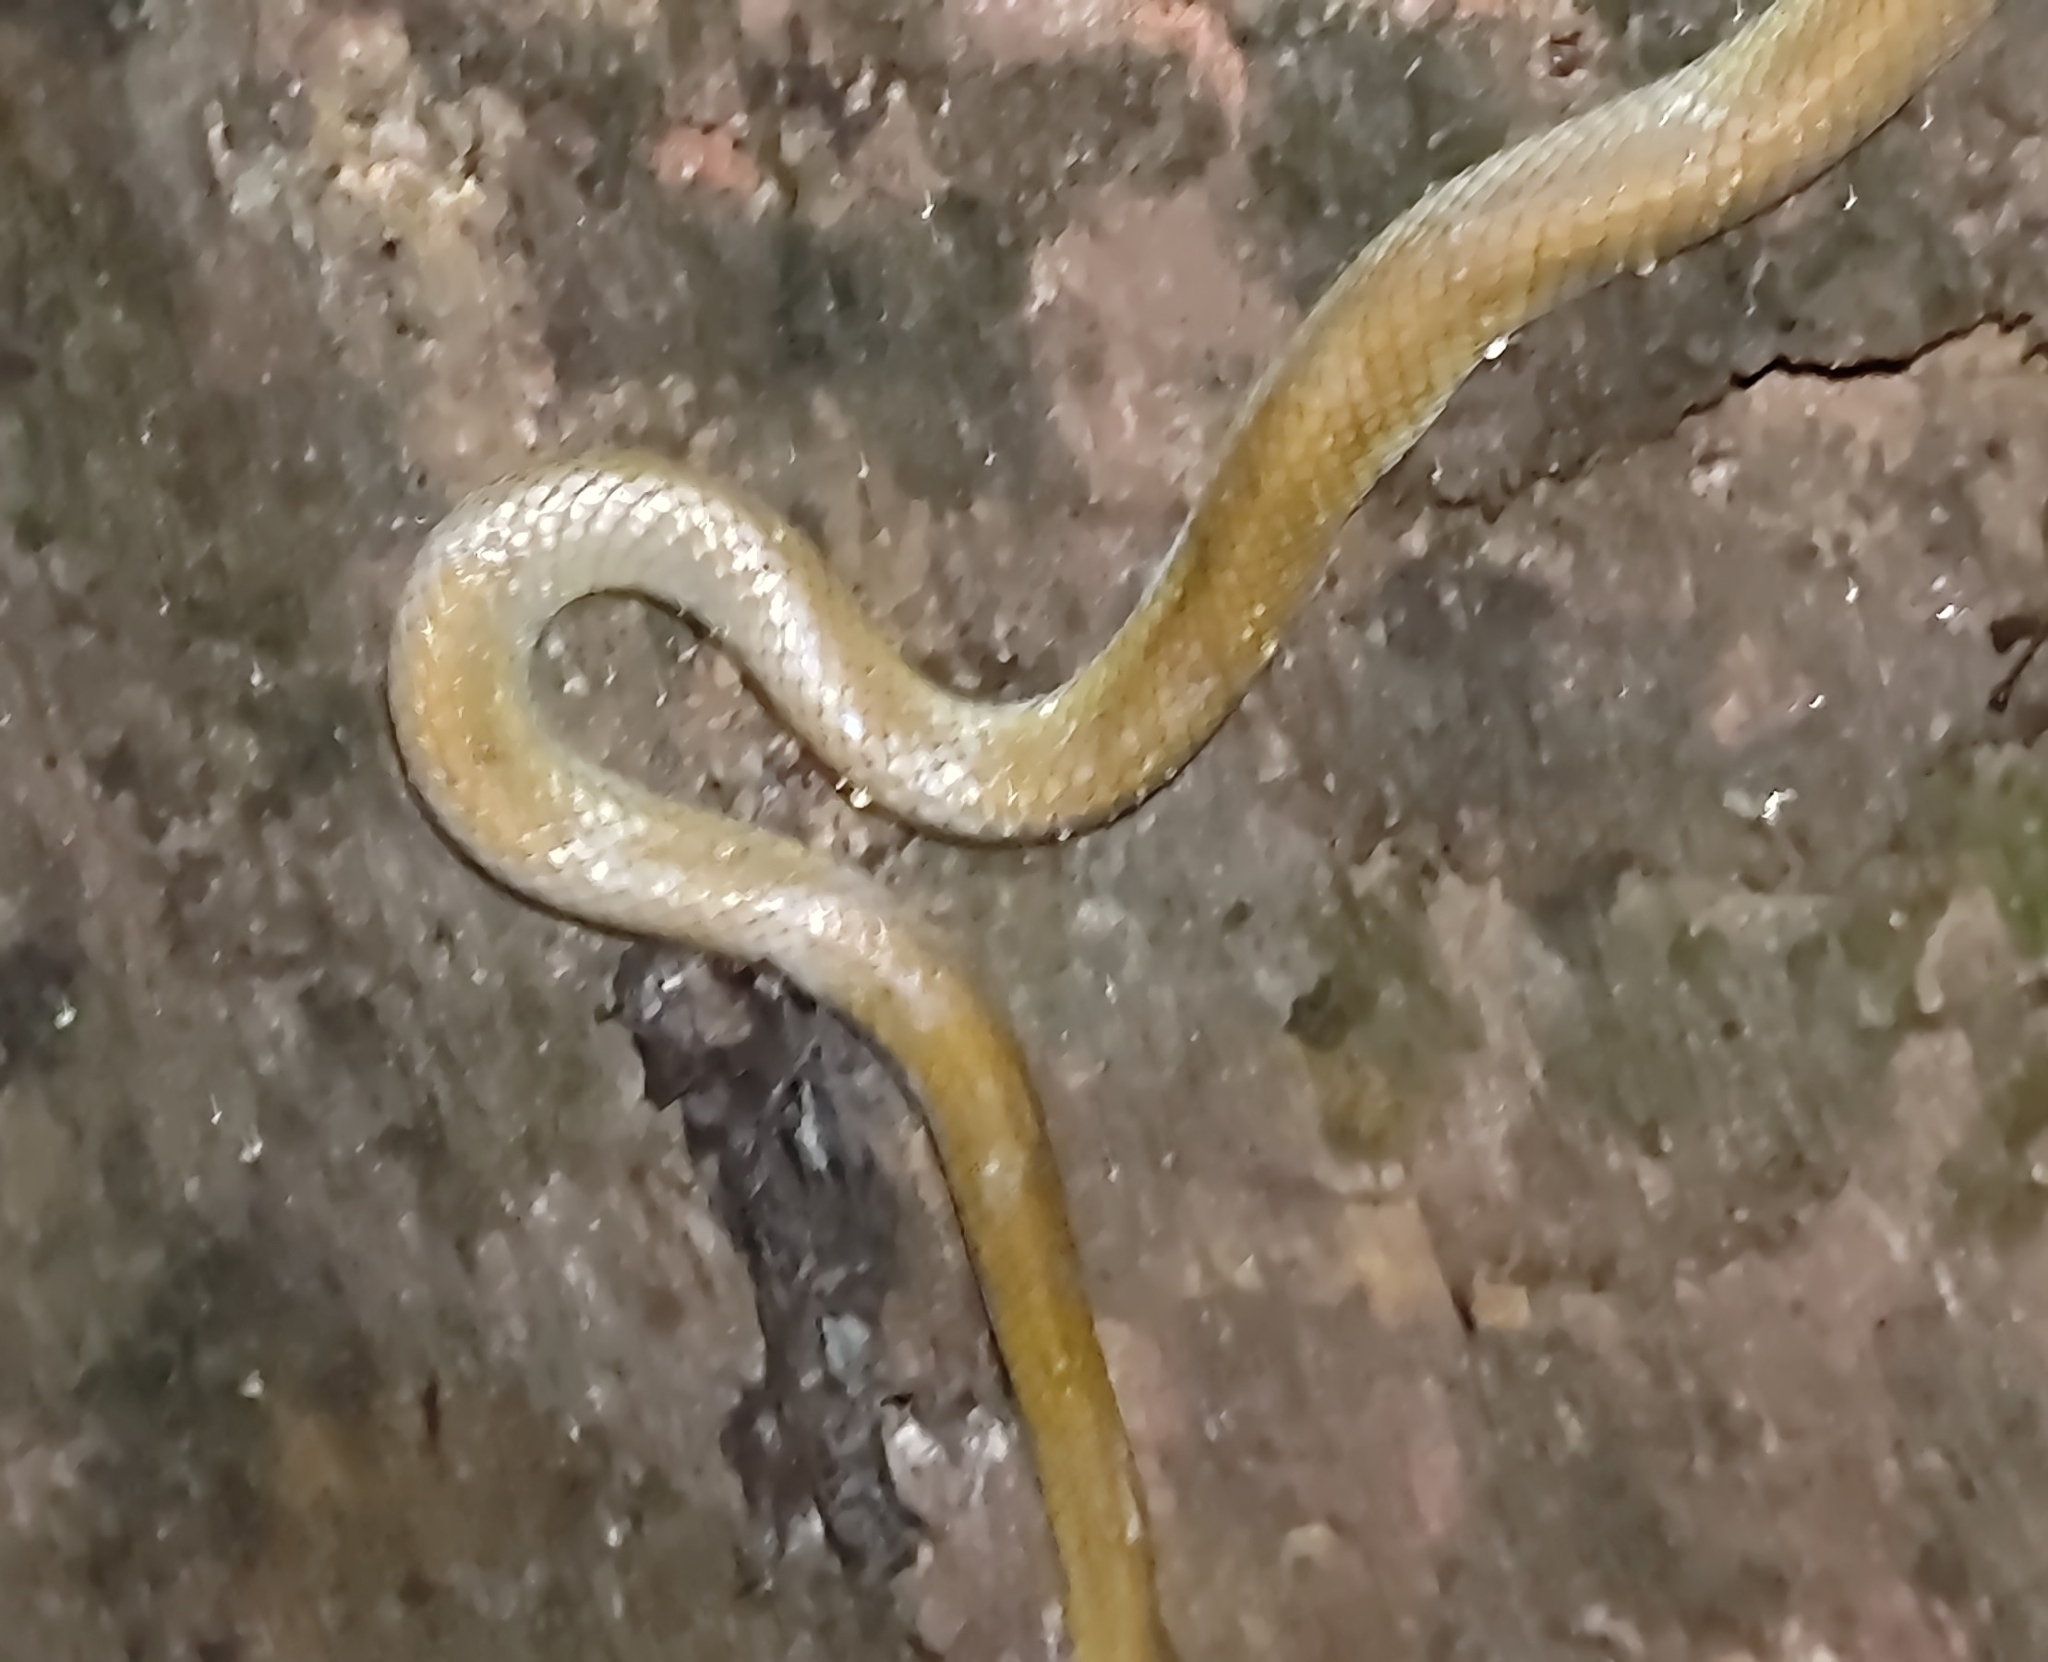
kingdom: Animalia
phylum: Chordata
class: Squamata
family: Colubridae
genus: Lycodon
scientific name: Lycodon fasciolatus
